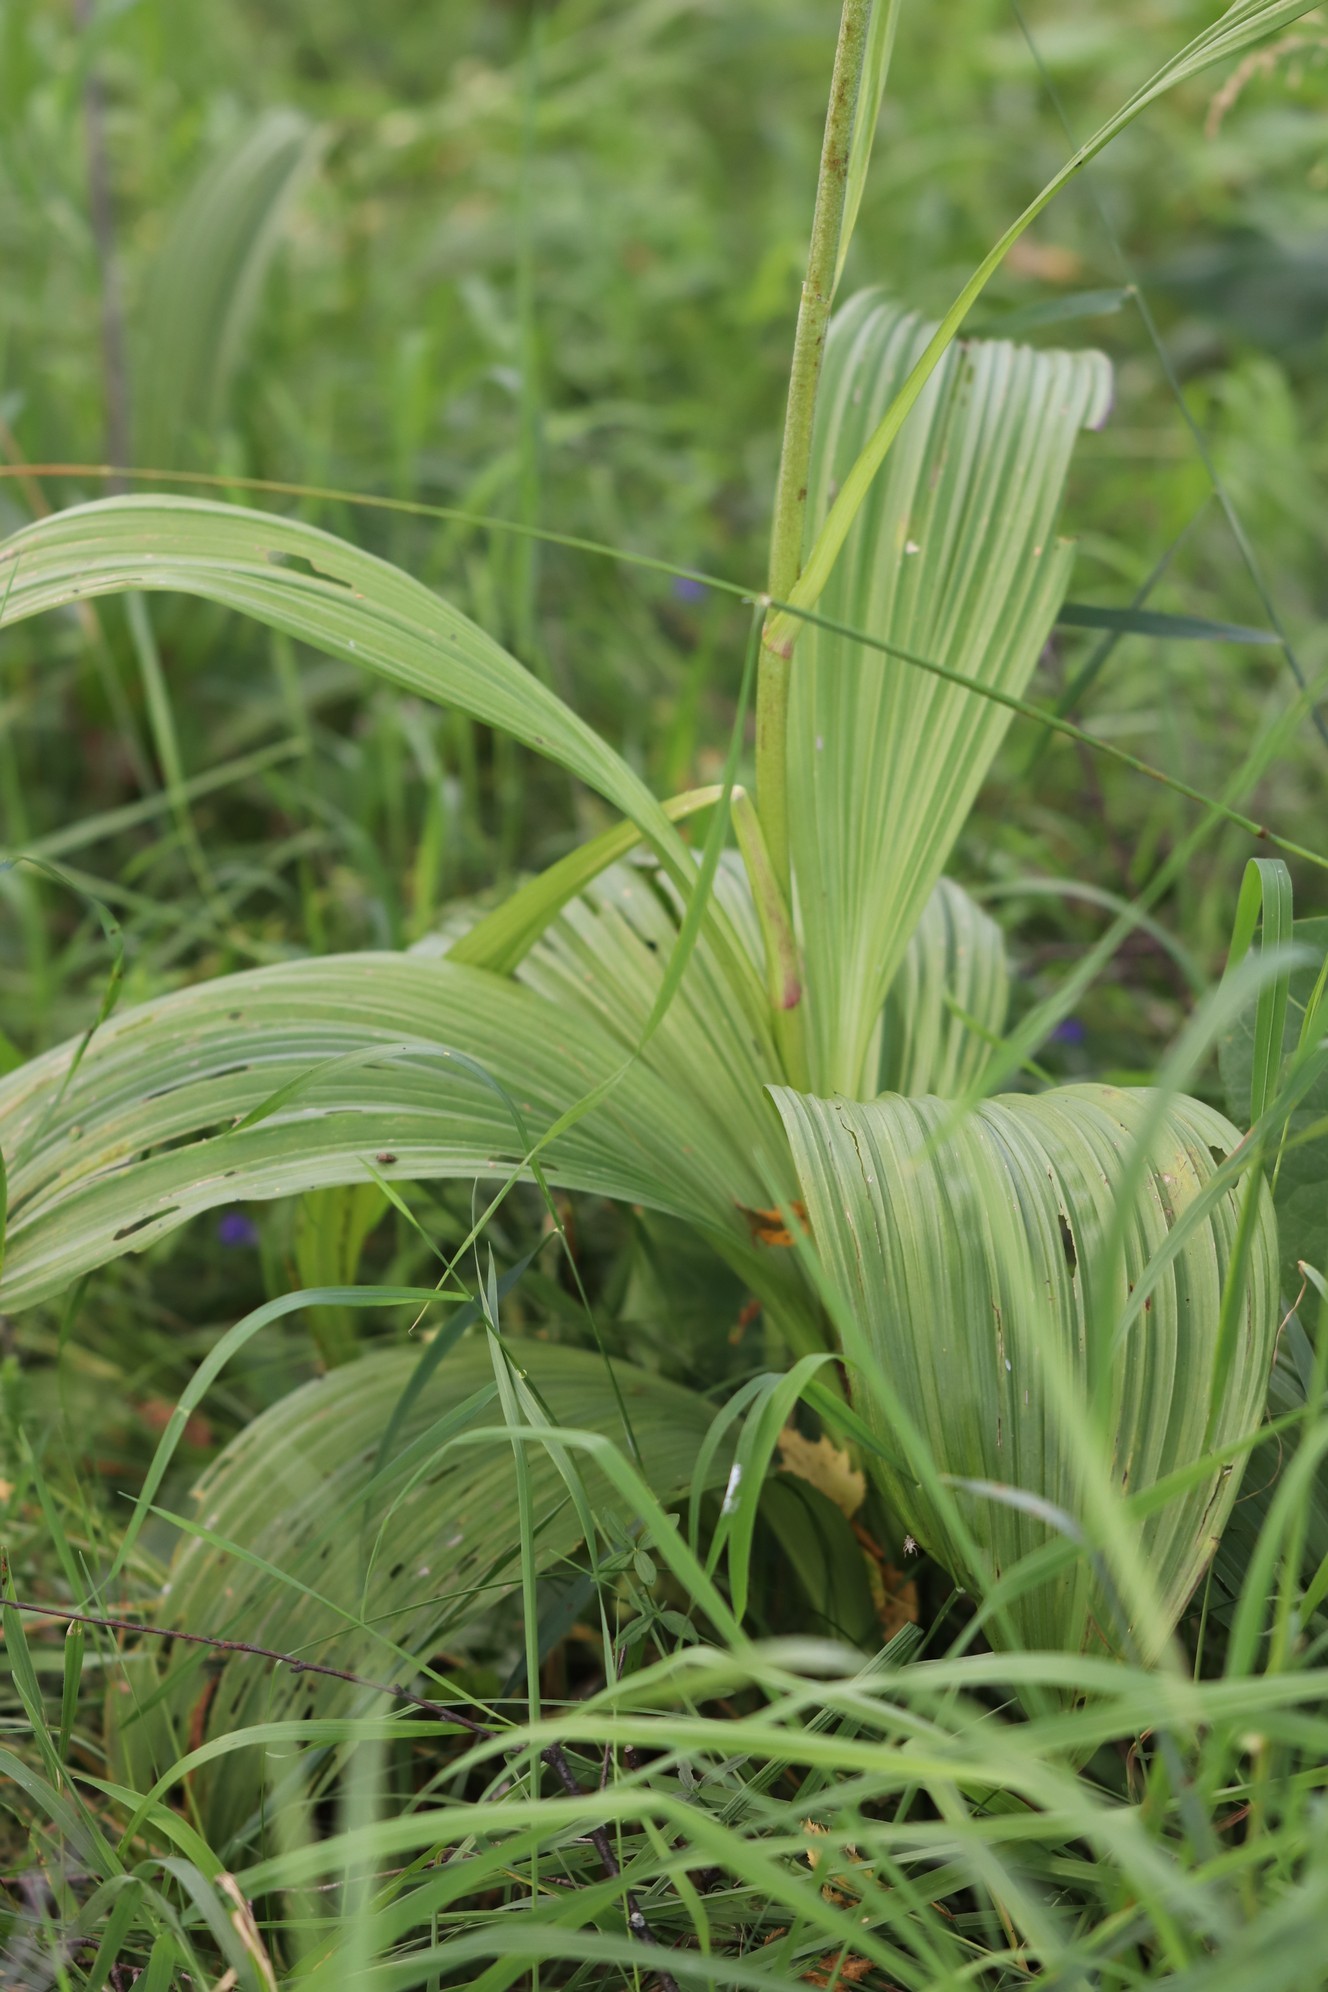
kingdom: Plantae
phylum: Tracheophyta
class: Liliopsida
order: Liliales
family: Melanthiaceae
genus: Veratrum
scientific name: Veratrum nigrum
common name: Black veratrum
